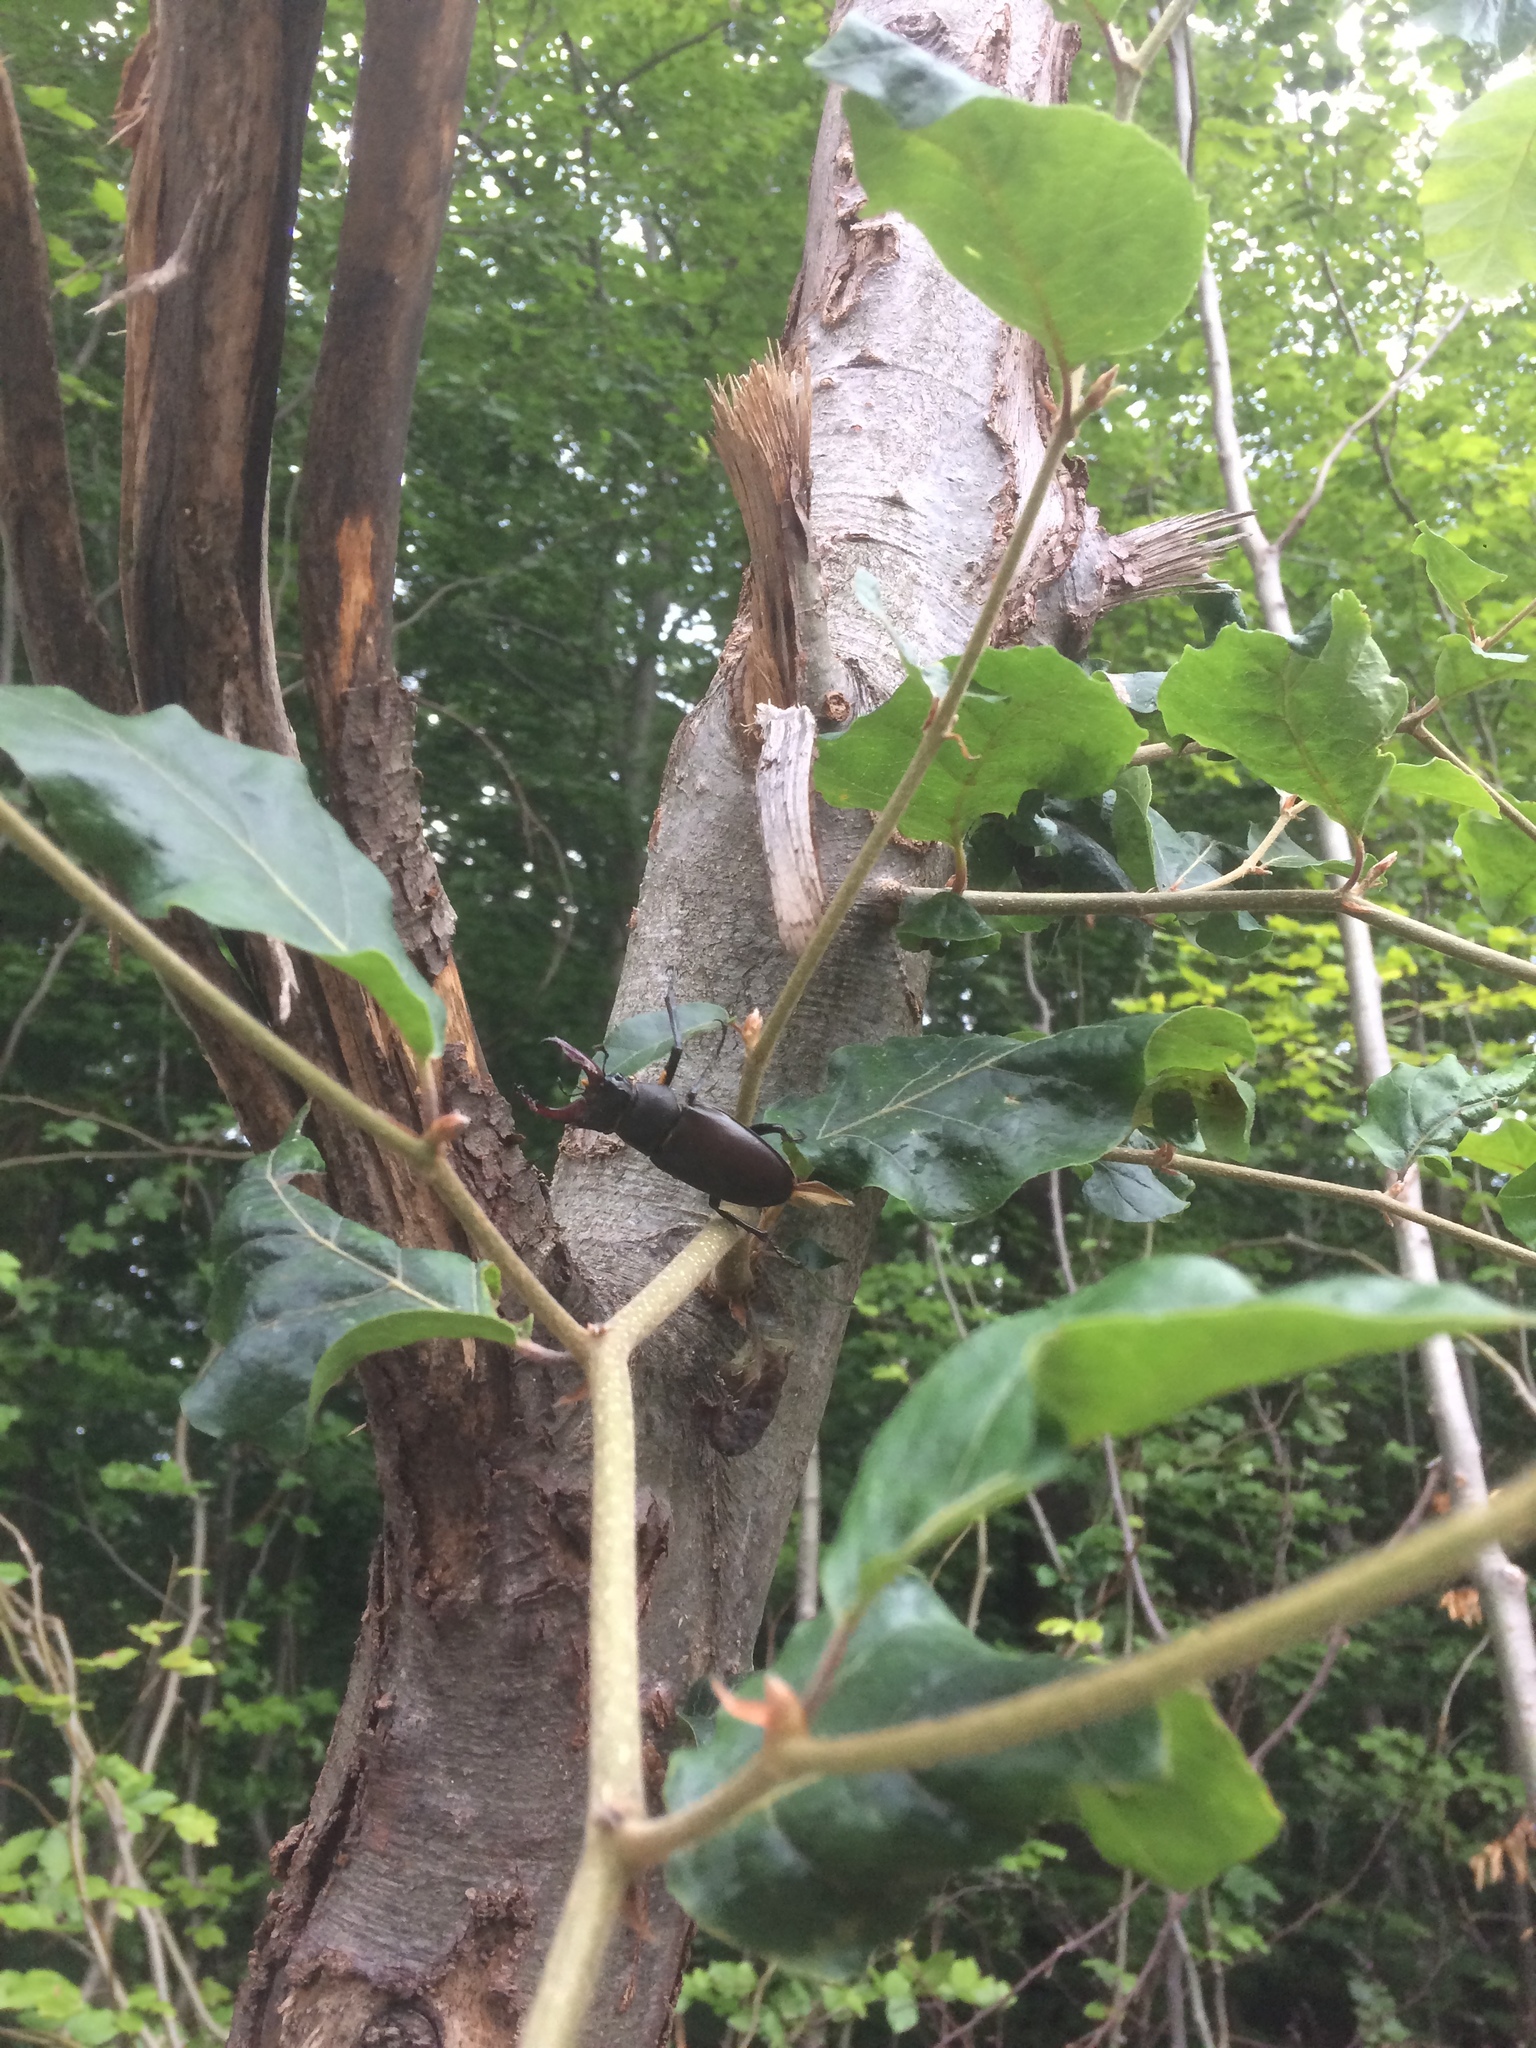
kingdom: Animalia
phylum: Arthropoda
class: Insecta
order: Coleoptera
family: Lucanidae
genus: Lucanus
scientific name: Lucanus cervus
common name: Stag beetle
